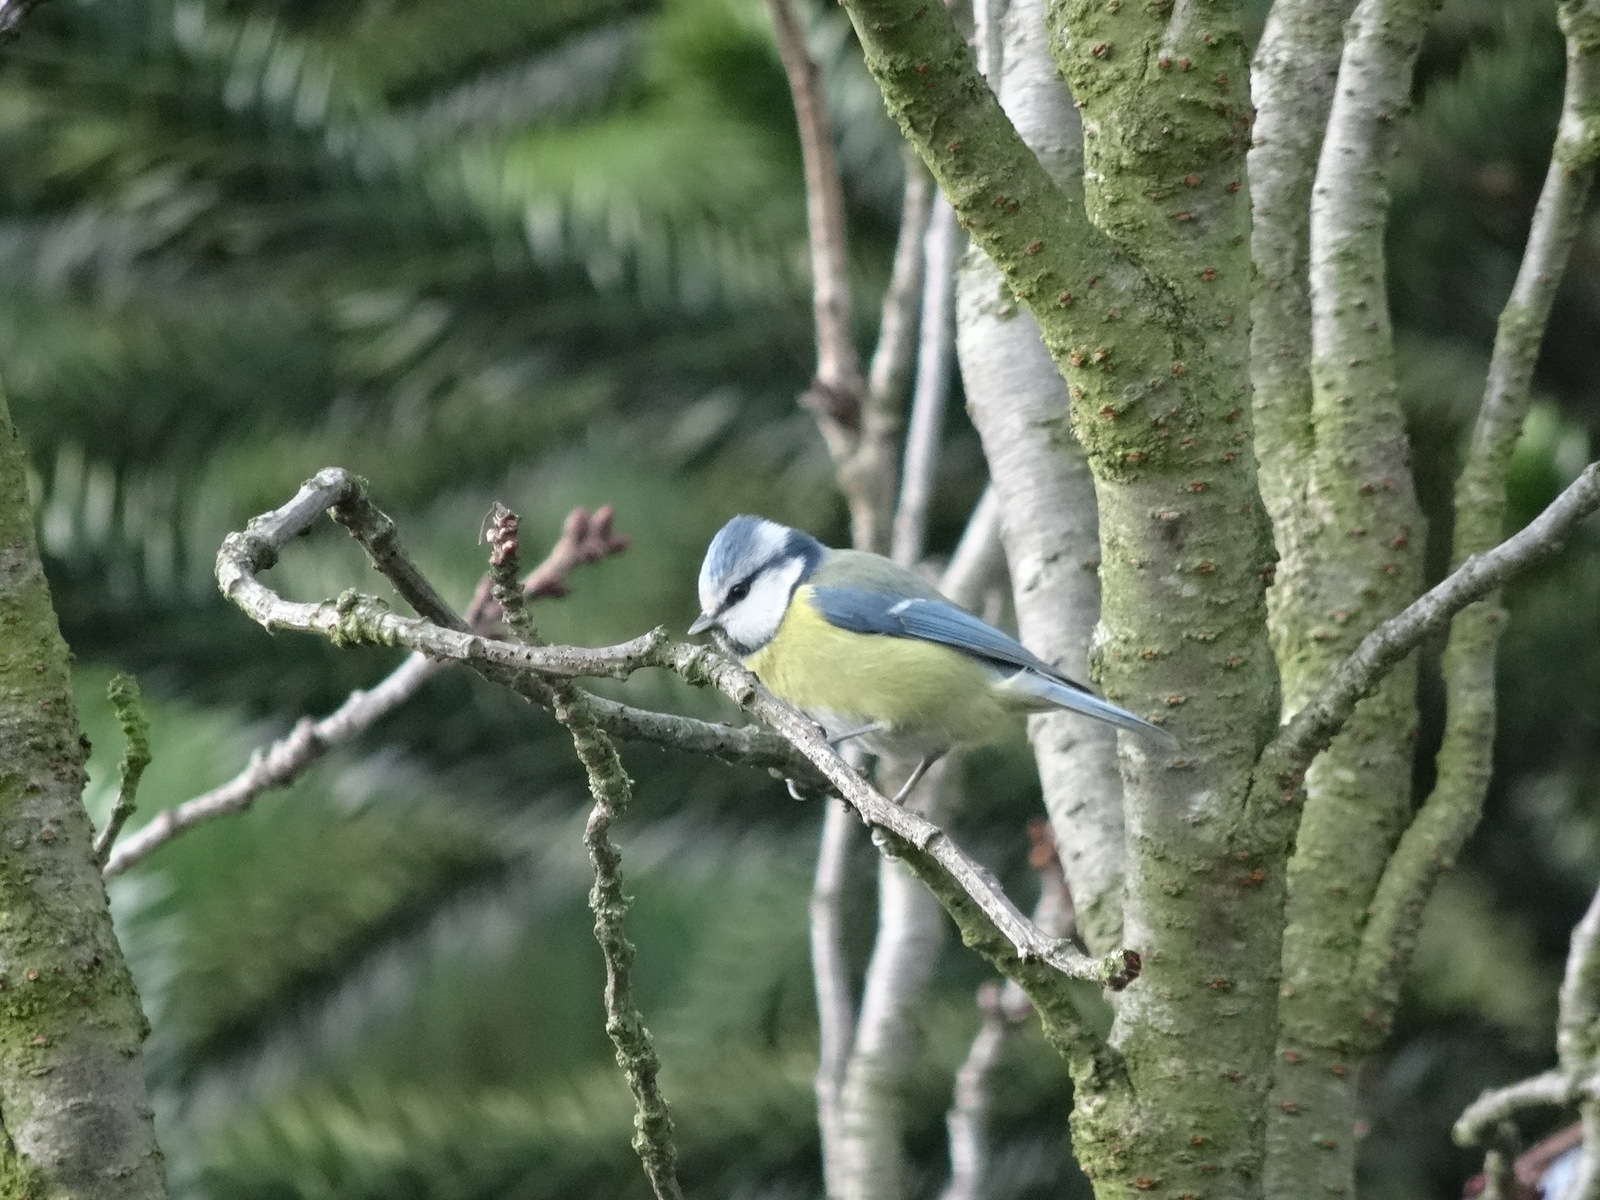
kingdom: Animalia
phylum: Chordata
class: Aves
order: Passeriformes
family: Paridae
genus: Cyanistes
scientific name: Cyanistes caeruleus
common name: Eurasian blue tit
